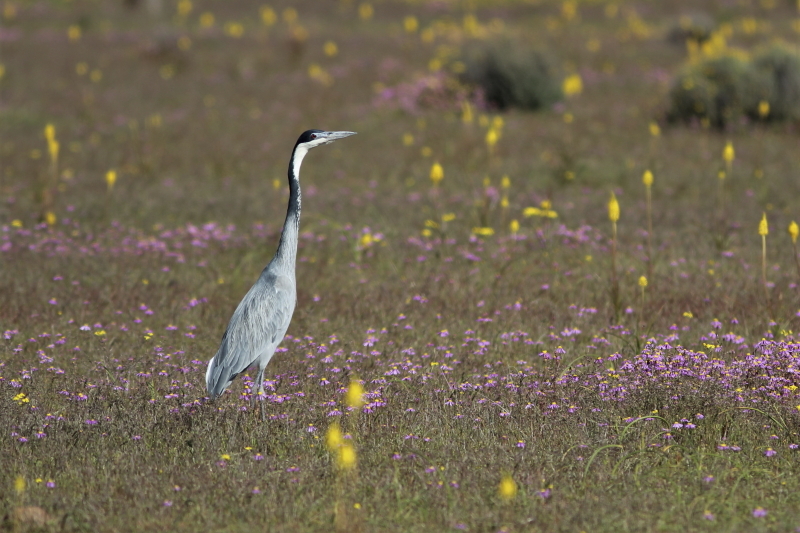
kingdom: Animalia
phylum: Chordata
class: Aves
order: Pelecaniformes
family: Ardeidae
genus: Ardea
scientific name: Ardea melanocephala
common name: Black-headed heron
